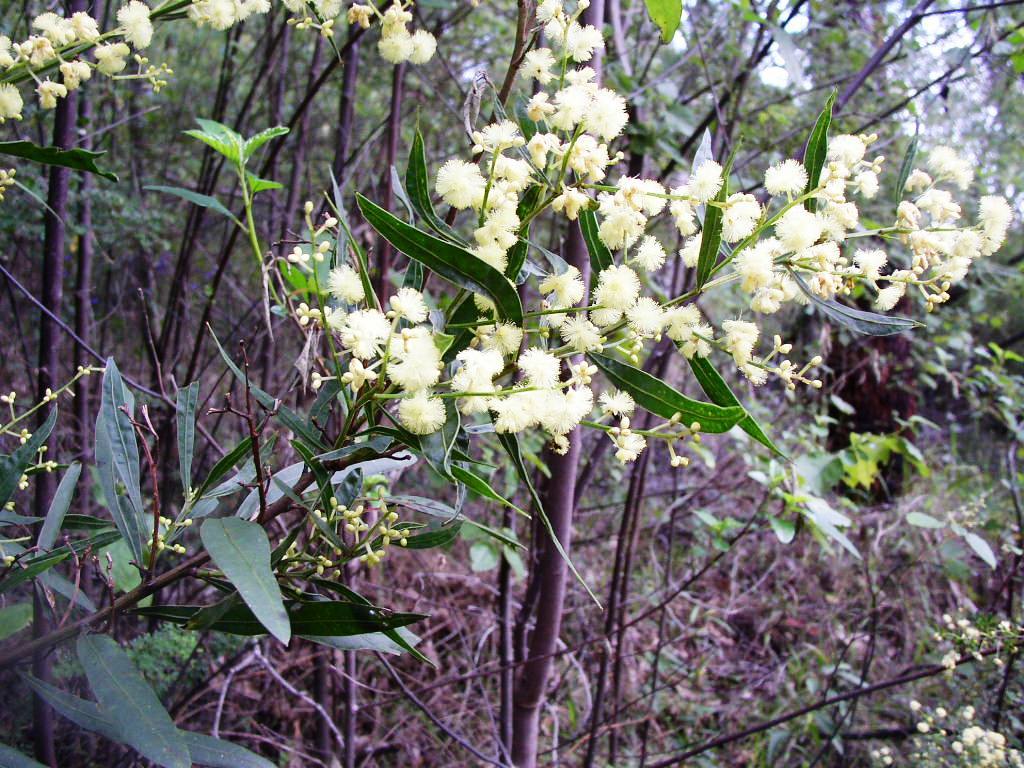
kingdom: Plantae
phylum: Tracheophyta
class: Magnoliopsida
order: Fabales
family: Fabaceae
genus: Acacia
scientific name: Acacia myrtifolia
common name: Myrtle wattle
